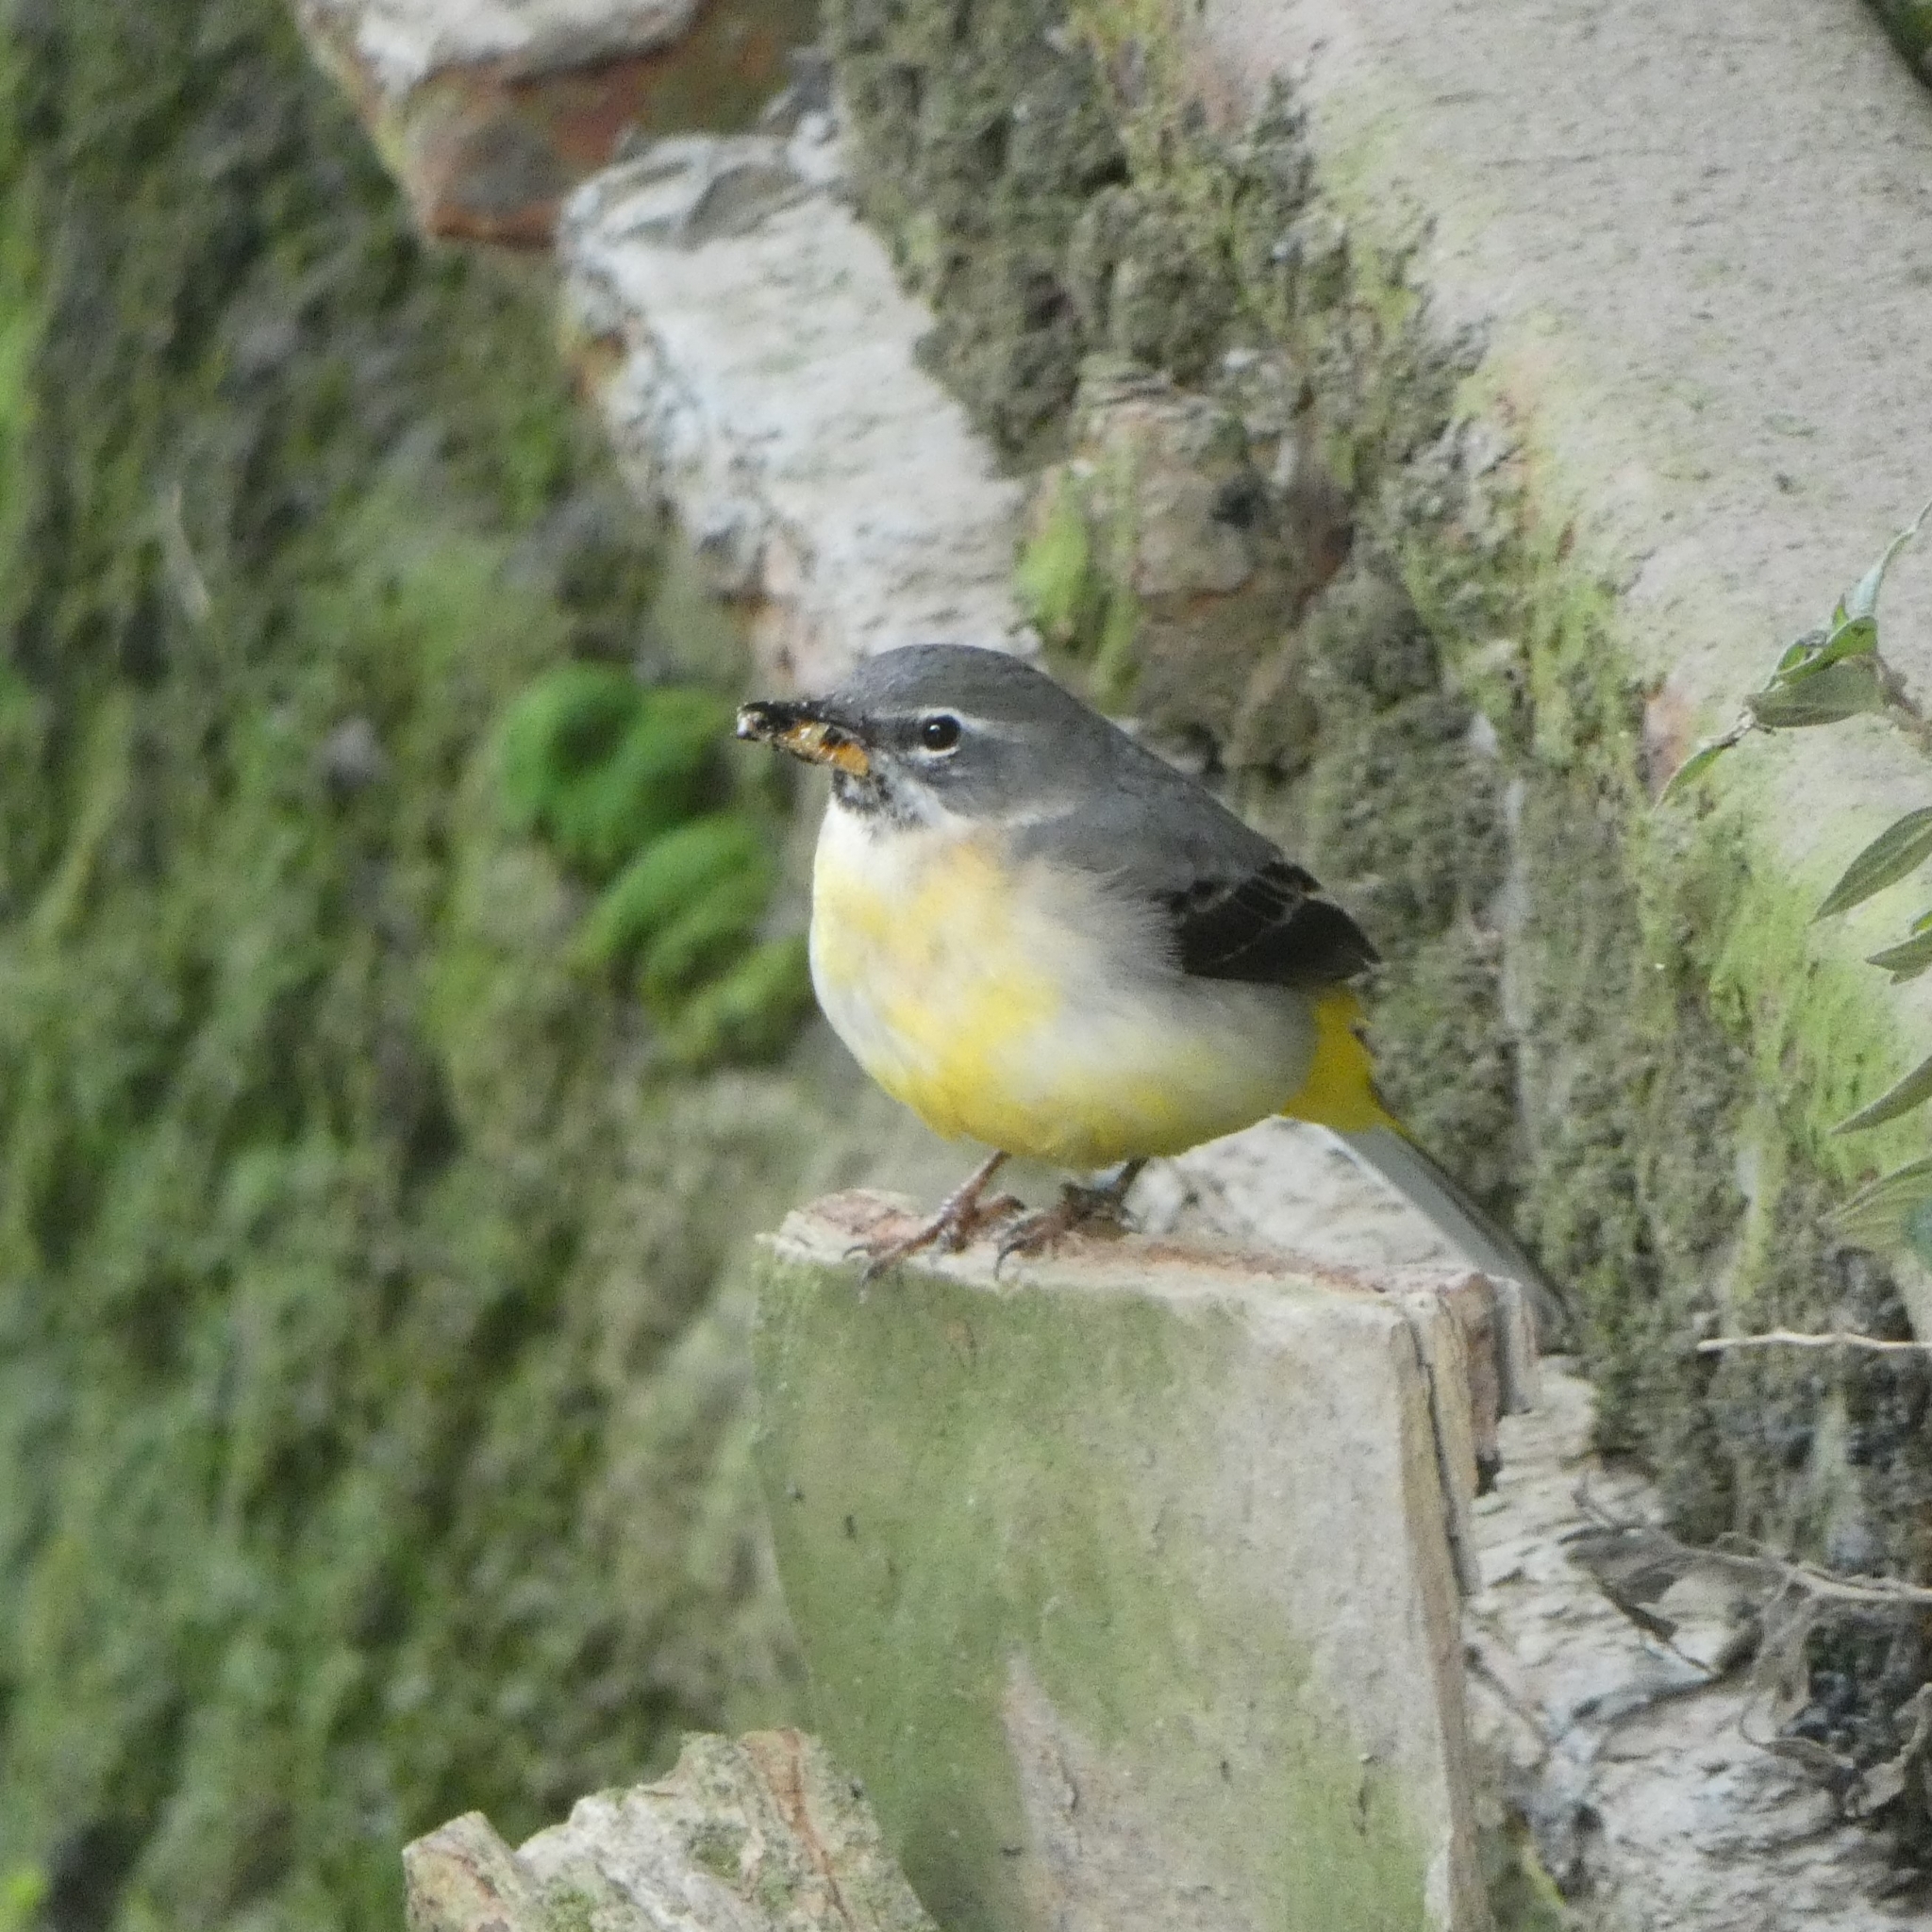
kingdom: Animalia
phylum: Chordata
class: Aves
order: Passeriformes
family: Motacillidae
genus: Motacilla
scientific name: Motacilla cinerea
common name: Grey wagtail
